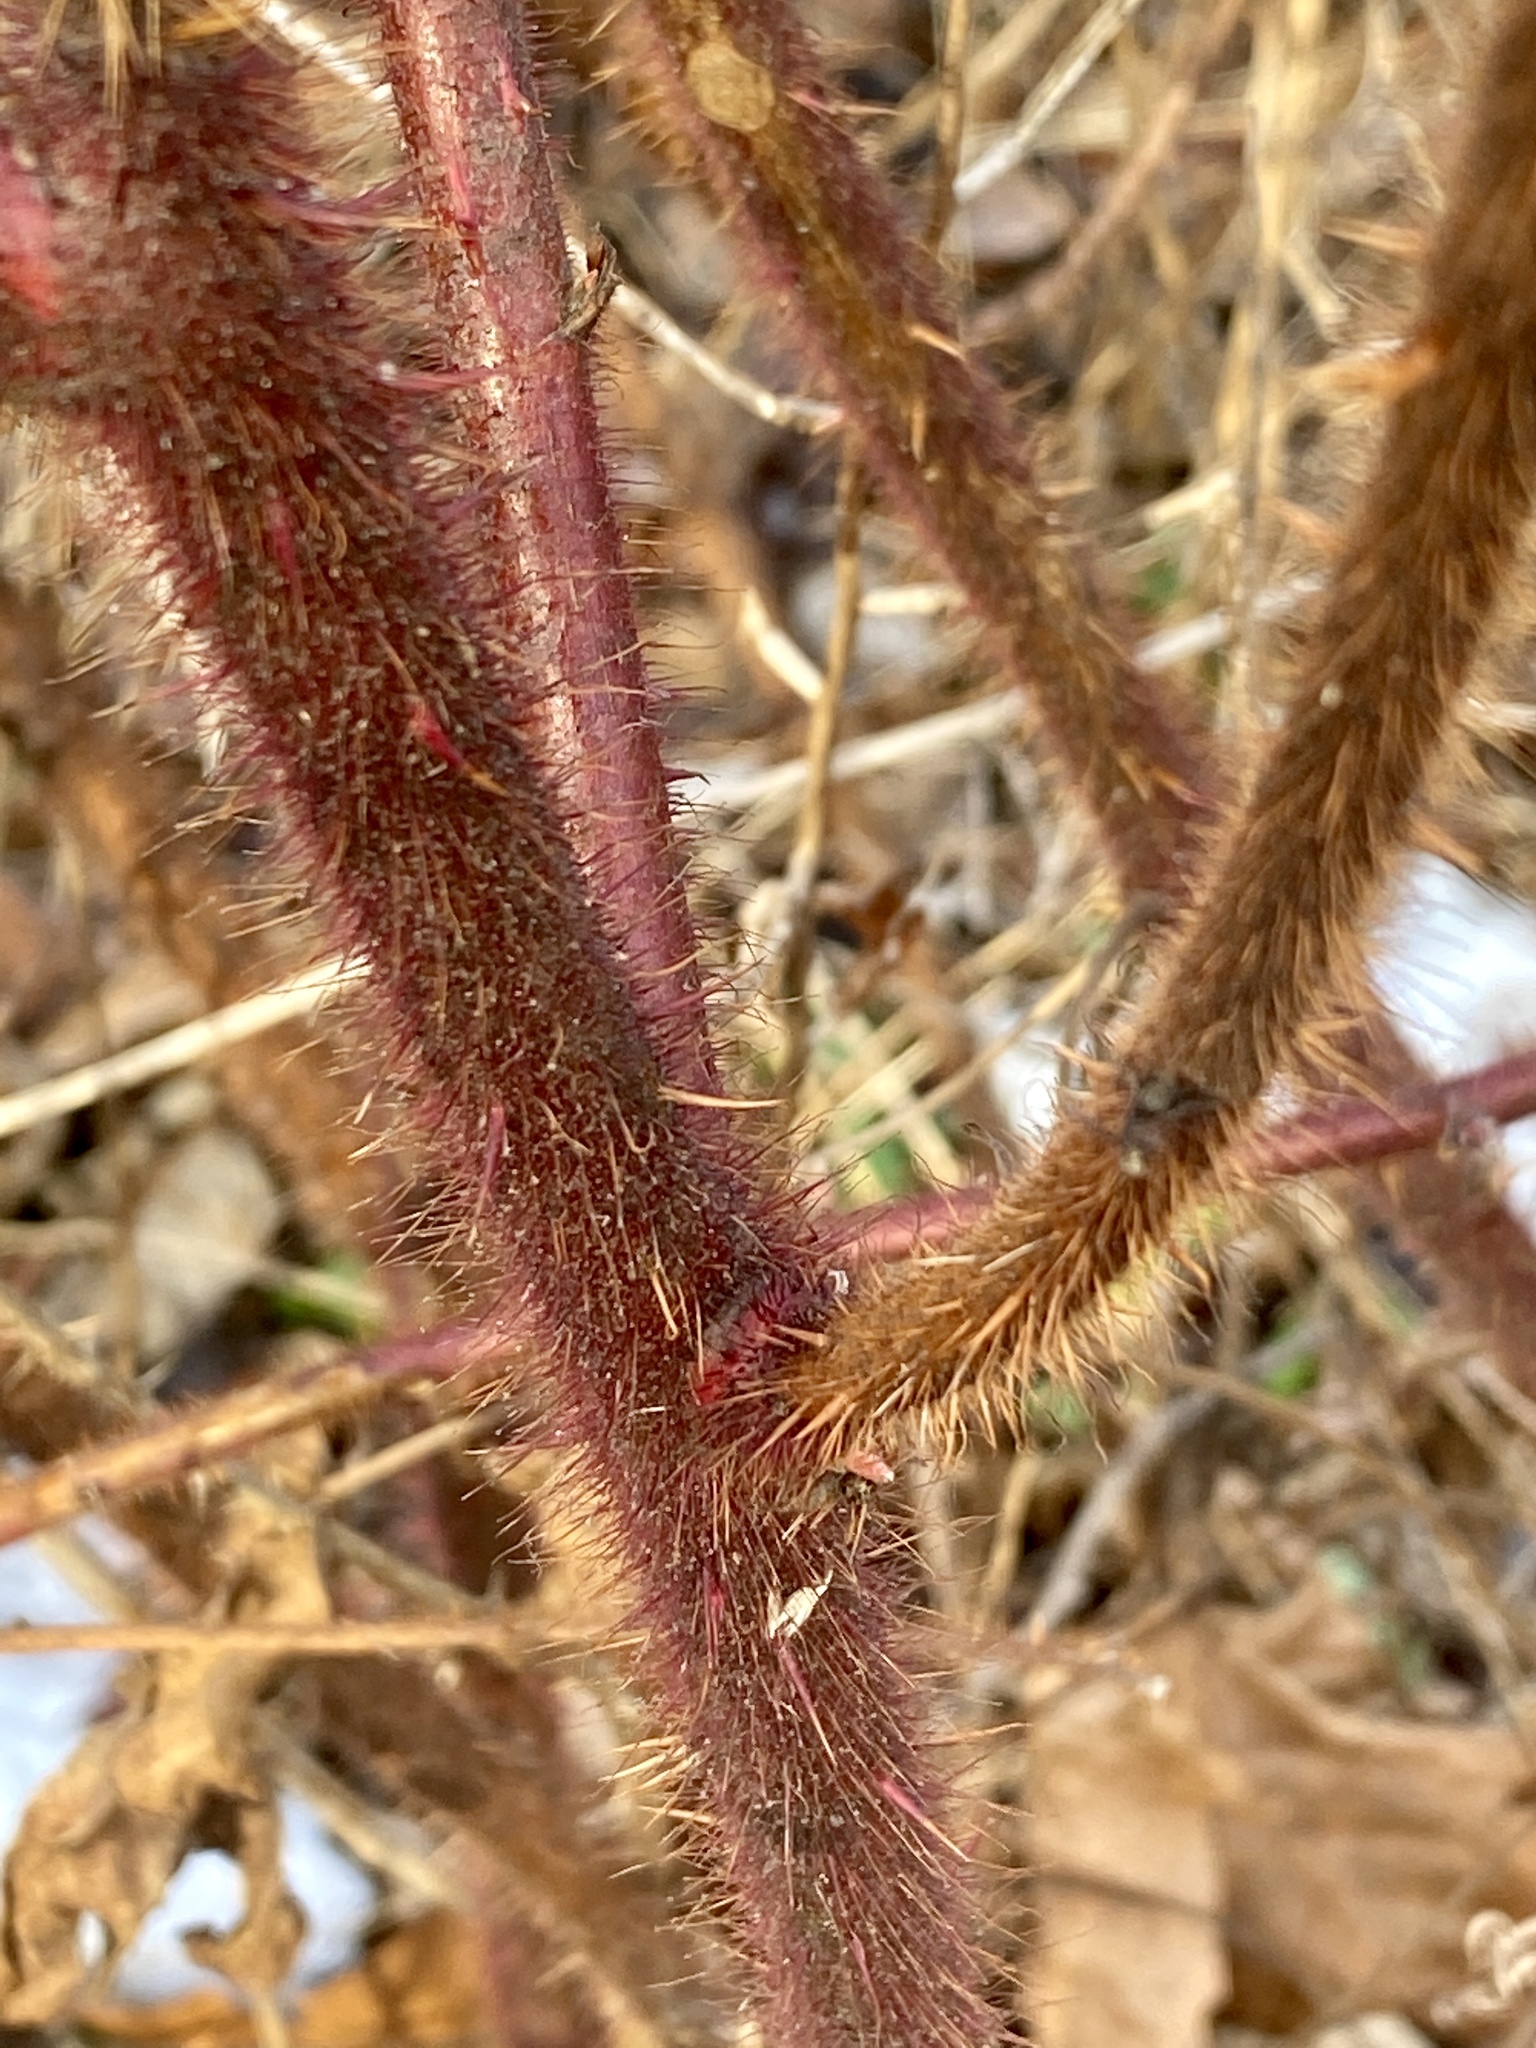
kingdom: Plantae
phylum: Tracheophyta
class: Magnoliopsida
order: Rosales
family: Rosaceae
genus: Rubus
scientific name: Rubus phoenicolasius
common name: Japanese wineberry
